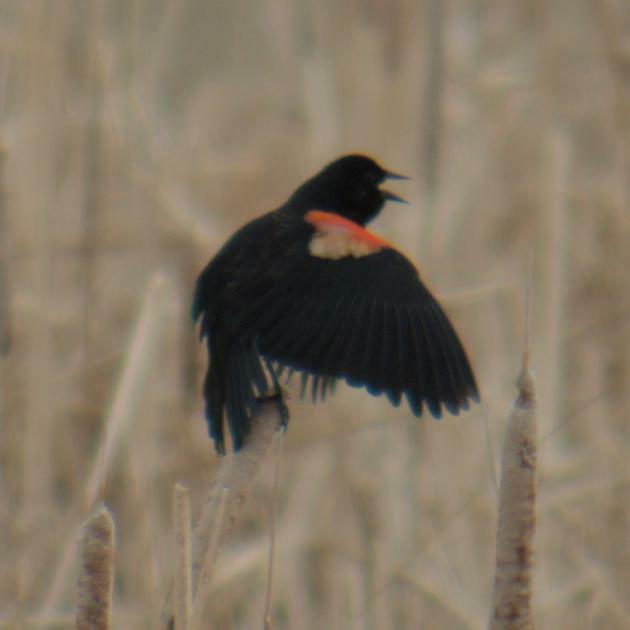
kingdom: Animalia
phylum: Chordata
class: Aves
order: Passeriformes
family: Icteridae
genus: Agelaius
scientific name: Agelaius phoeniceus
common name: Red-winged blackbird
